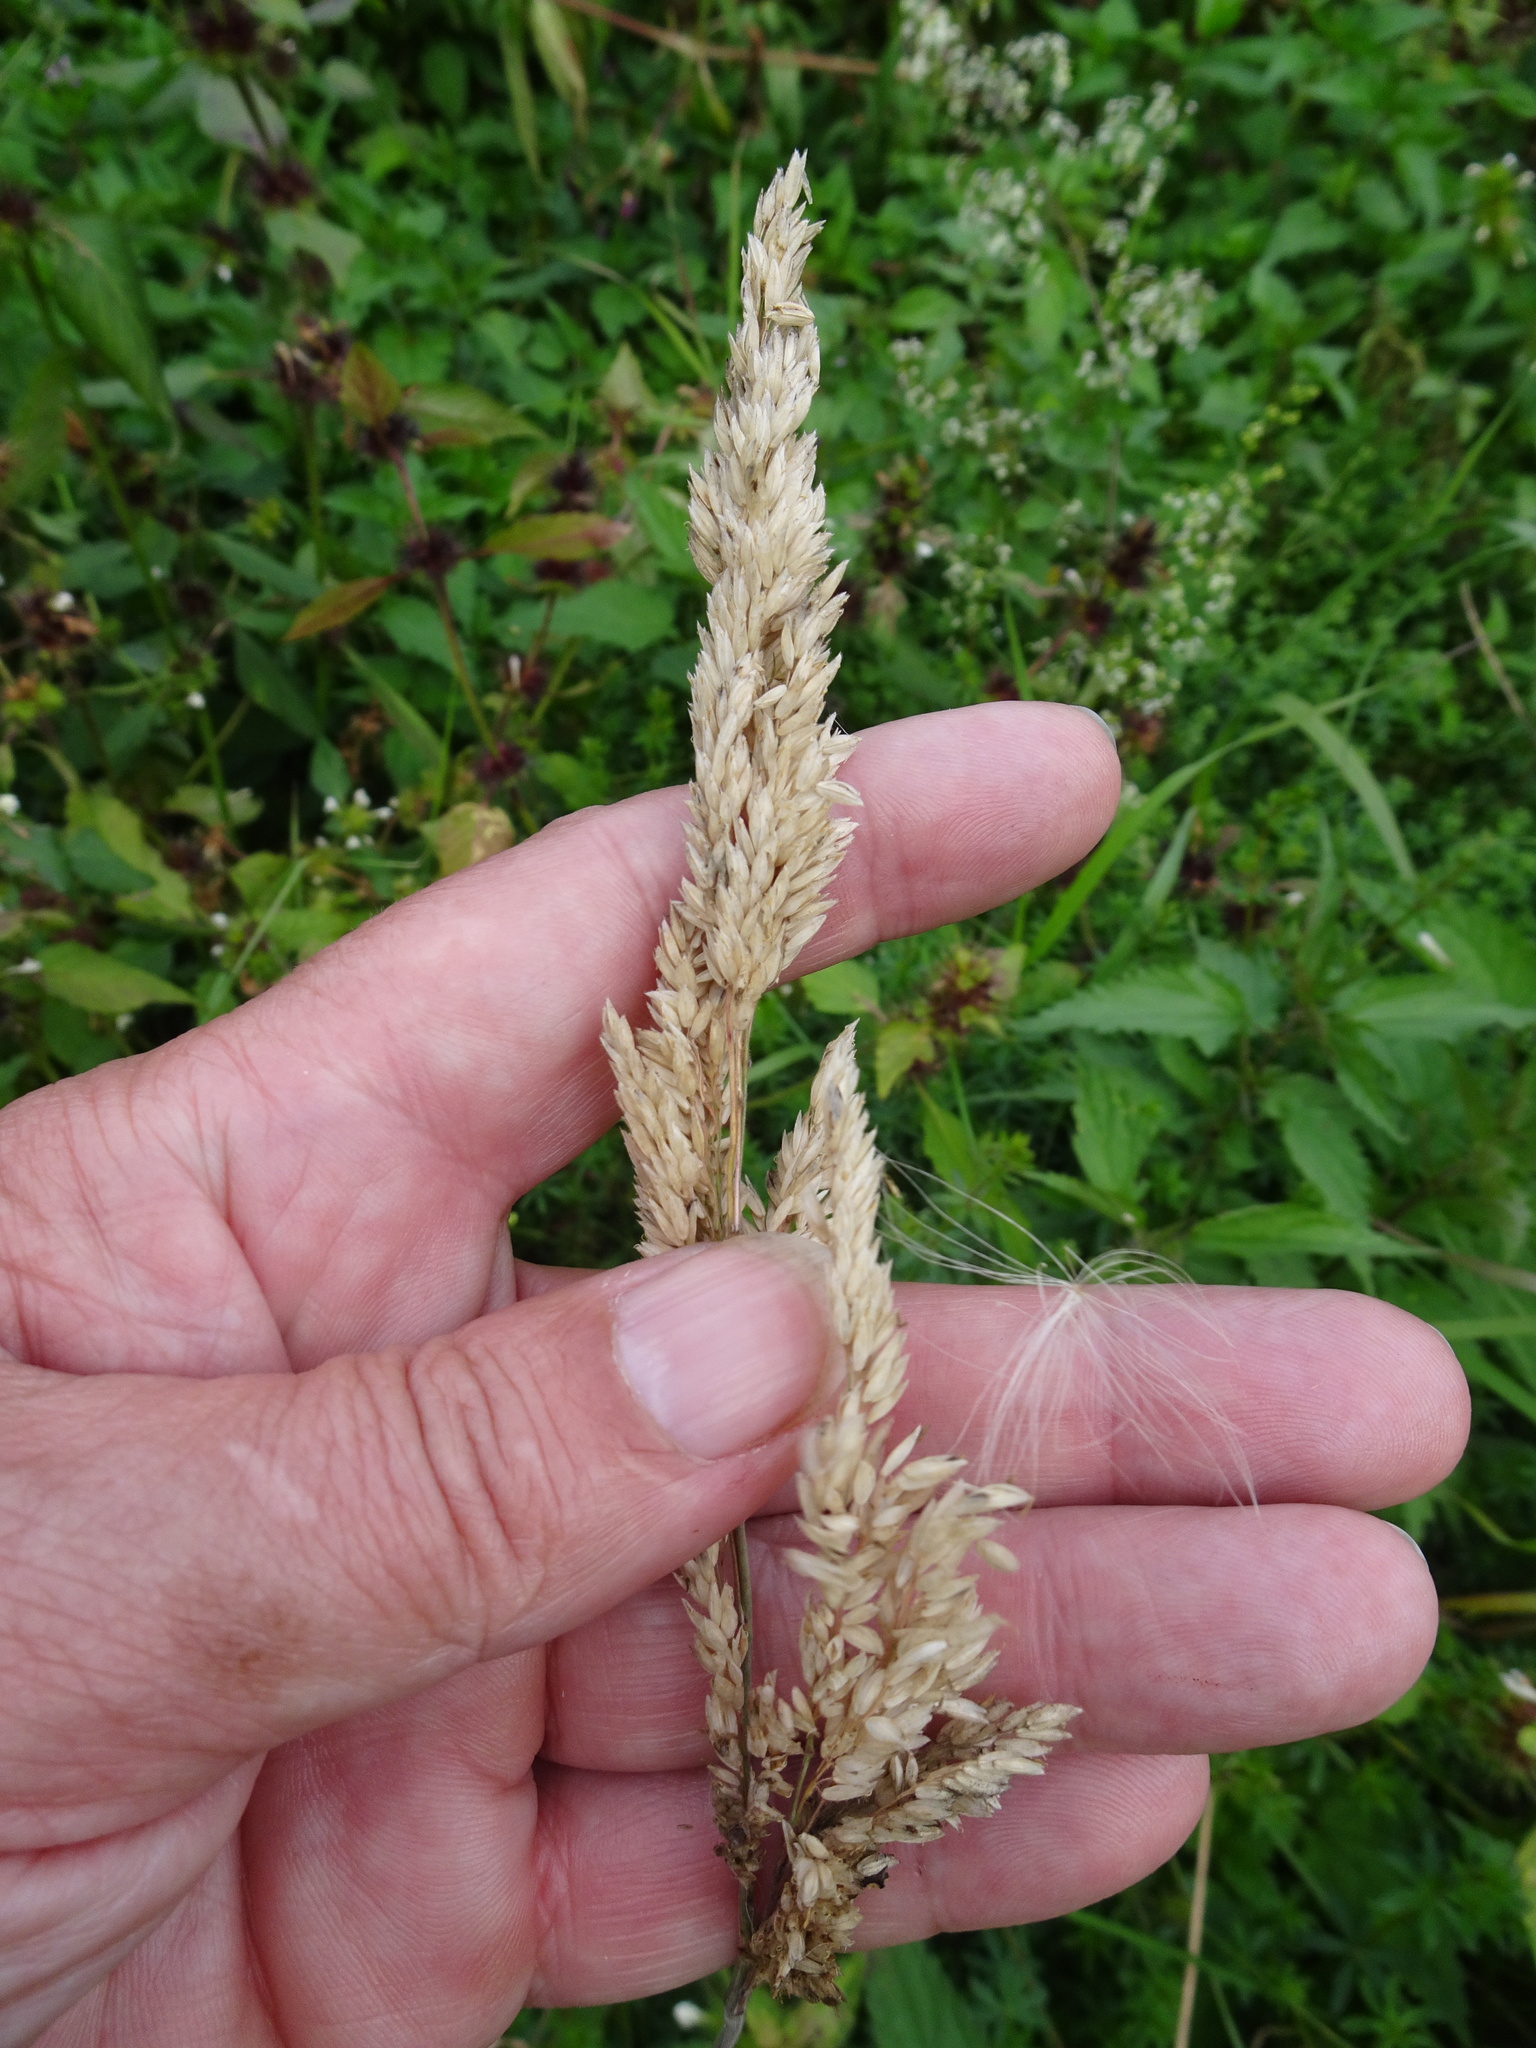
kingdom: Plantae
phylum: Tracheophyta
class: Liliopsida
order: Poales
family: Poaceae
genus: Holcus
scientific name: Holcus lanatus
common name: Yorkshire-fog
